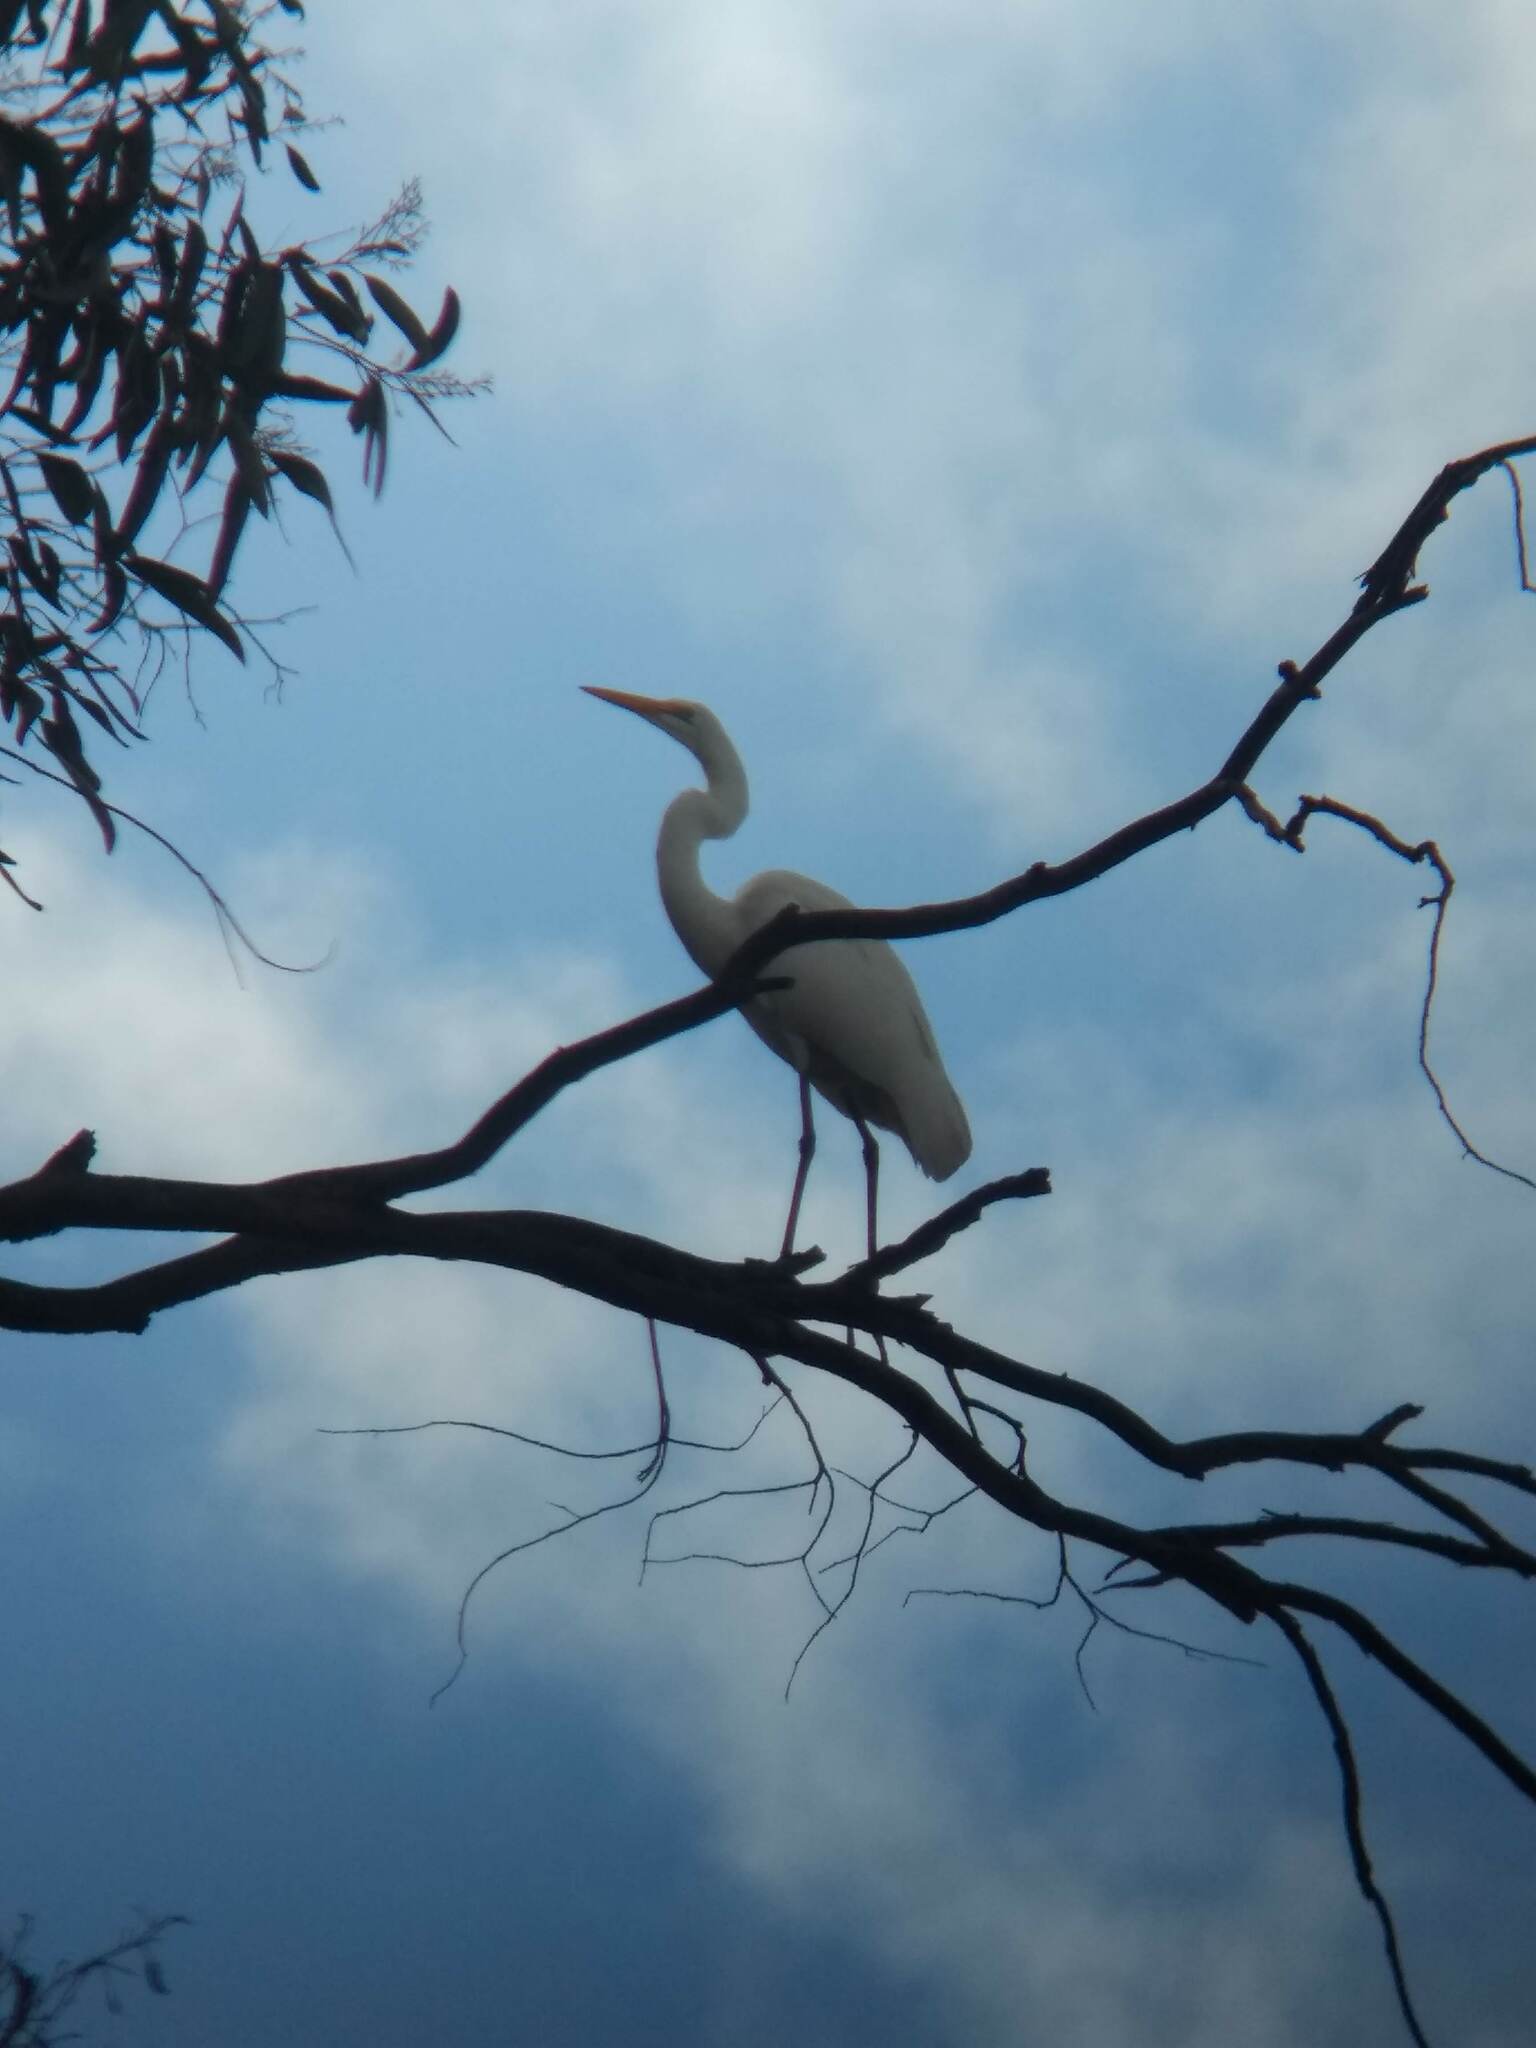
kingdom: Animalia
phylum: Chordata
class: Aves
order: Pelecaniformes
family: Ardeidae
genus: Ardea
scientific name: Ardea alba
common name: Great egret
